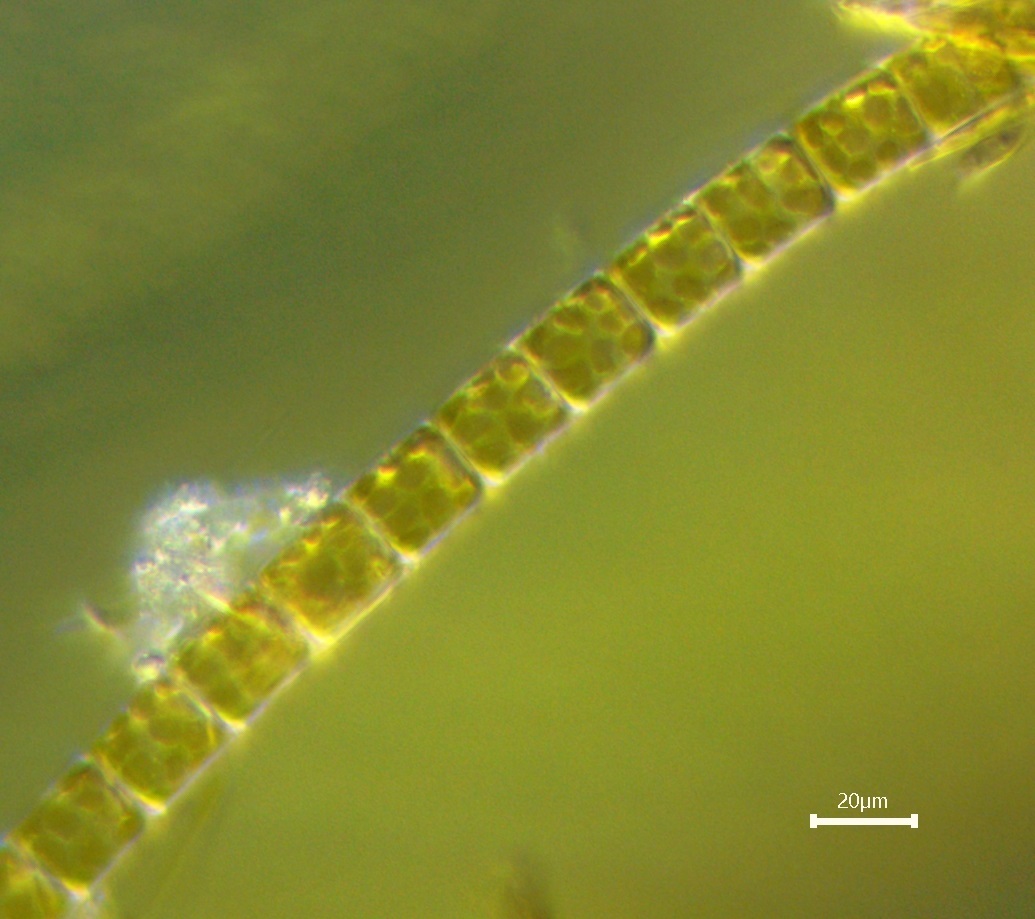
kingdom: Chromista
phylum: Ochrophyta
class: Bacillariophyceae
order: Melosirales
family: Melosiraceae
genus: Melosira
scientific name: Melosira varians
